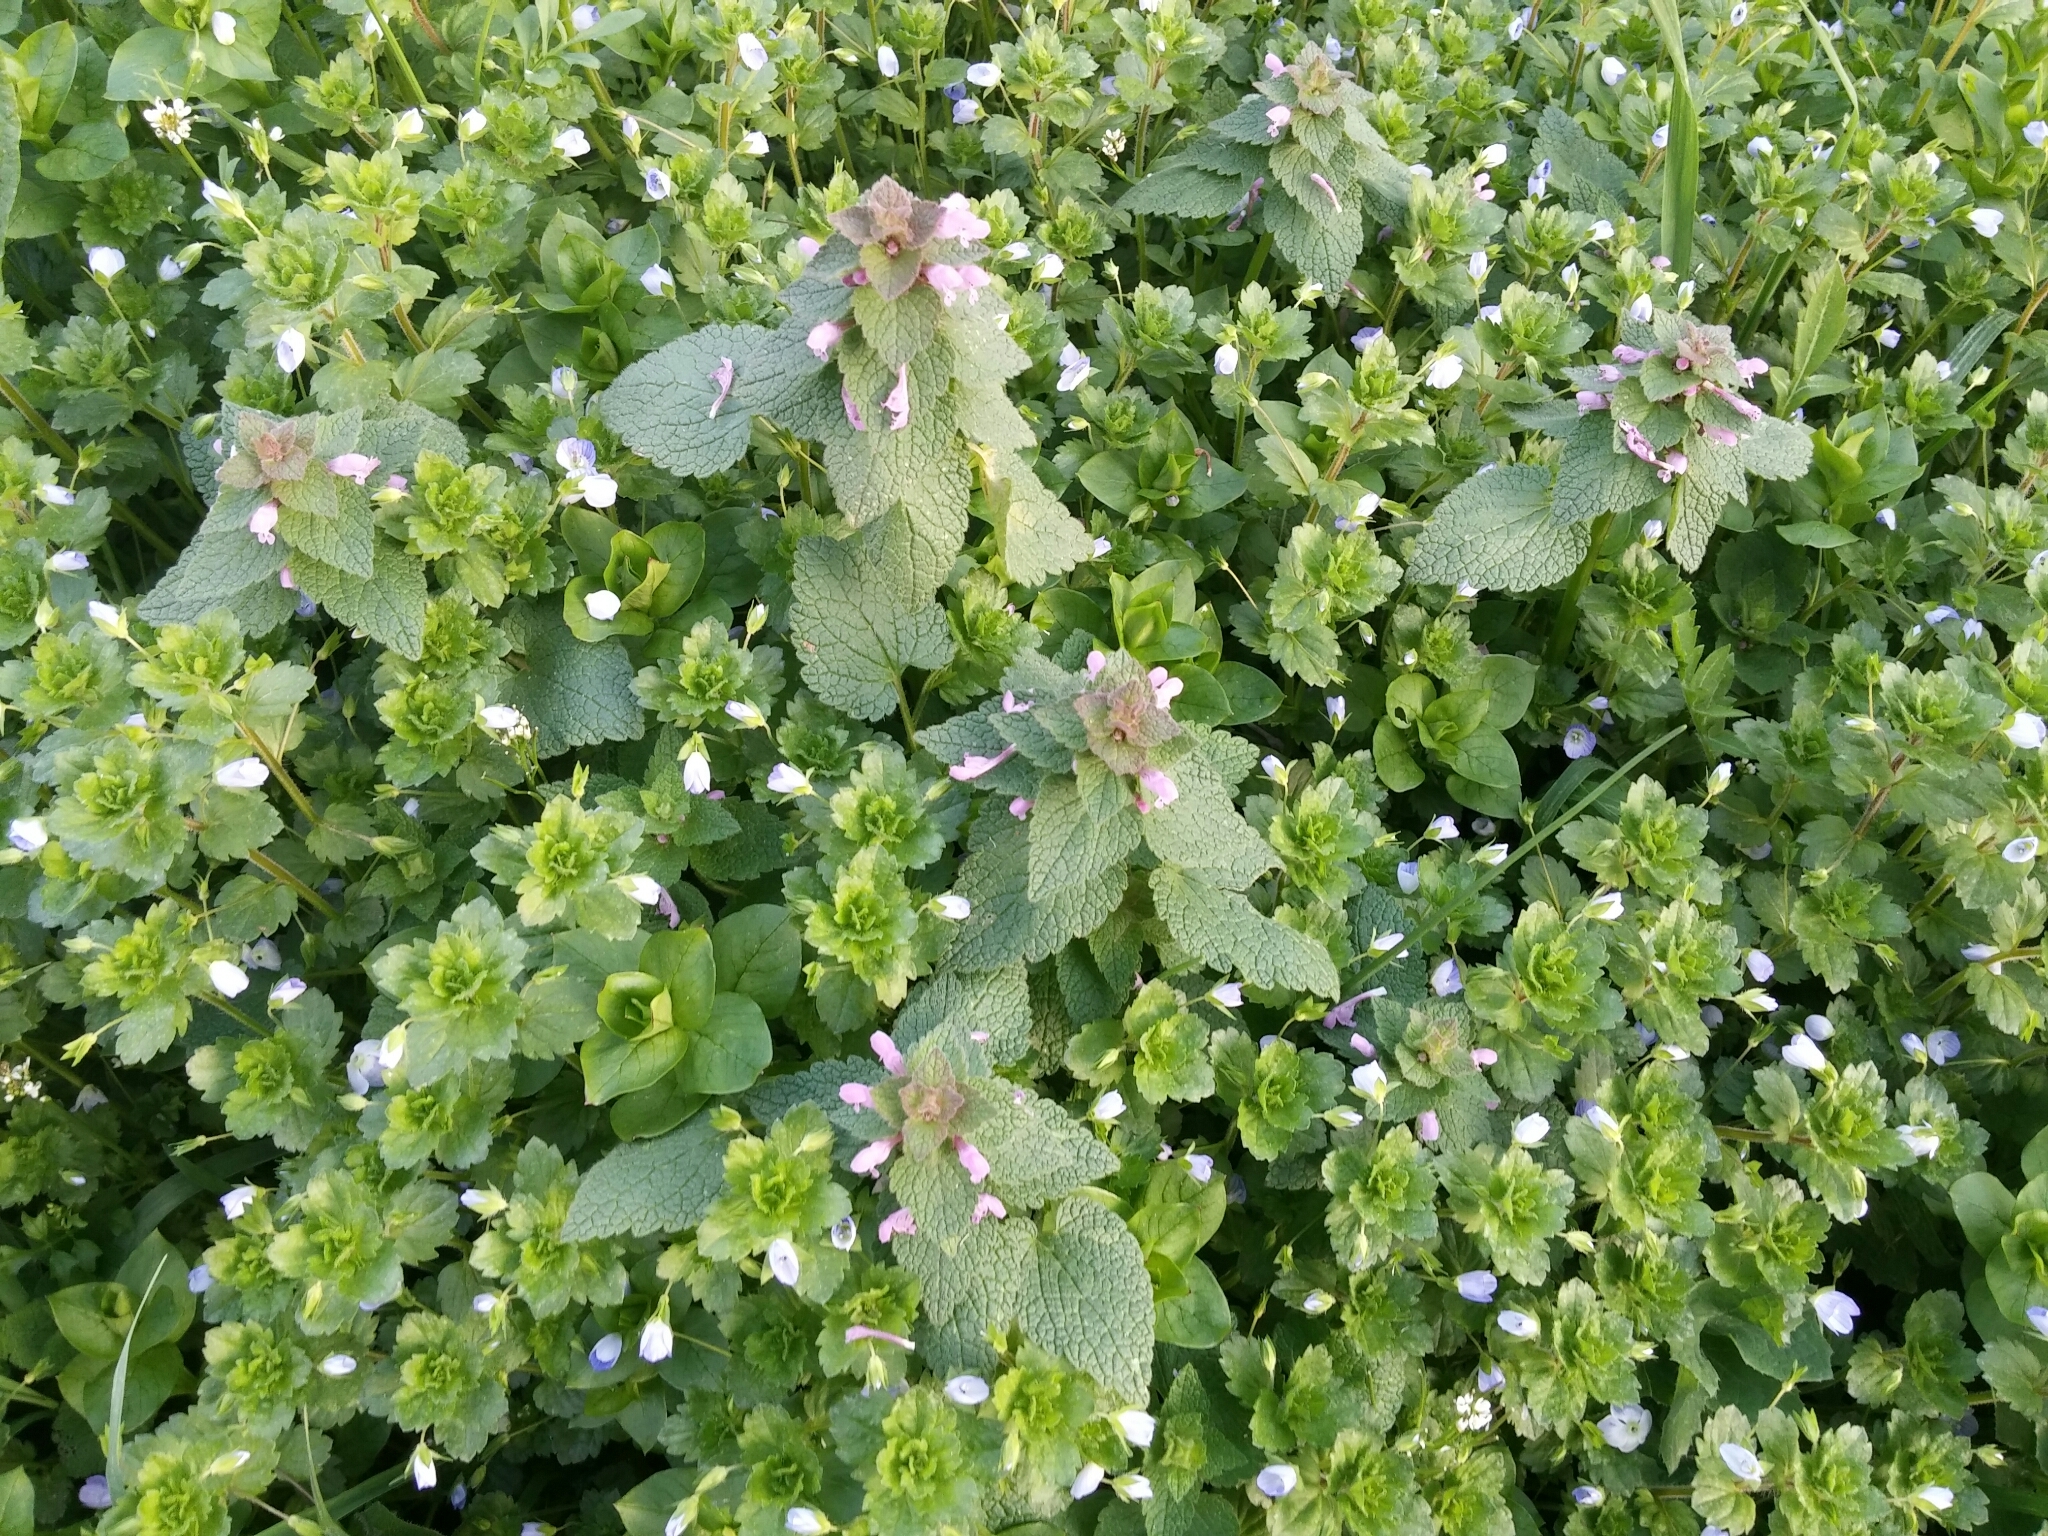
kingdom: Plantae
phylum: Tracheophyta
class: Magnoliopsida
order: Lamiales
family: Lamiaceae
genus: Lamium
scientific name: Lamium purpureum
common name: Red dead-nettle
